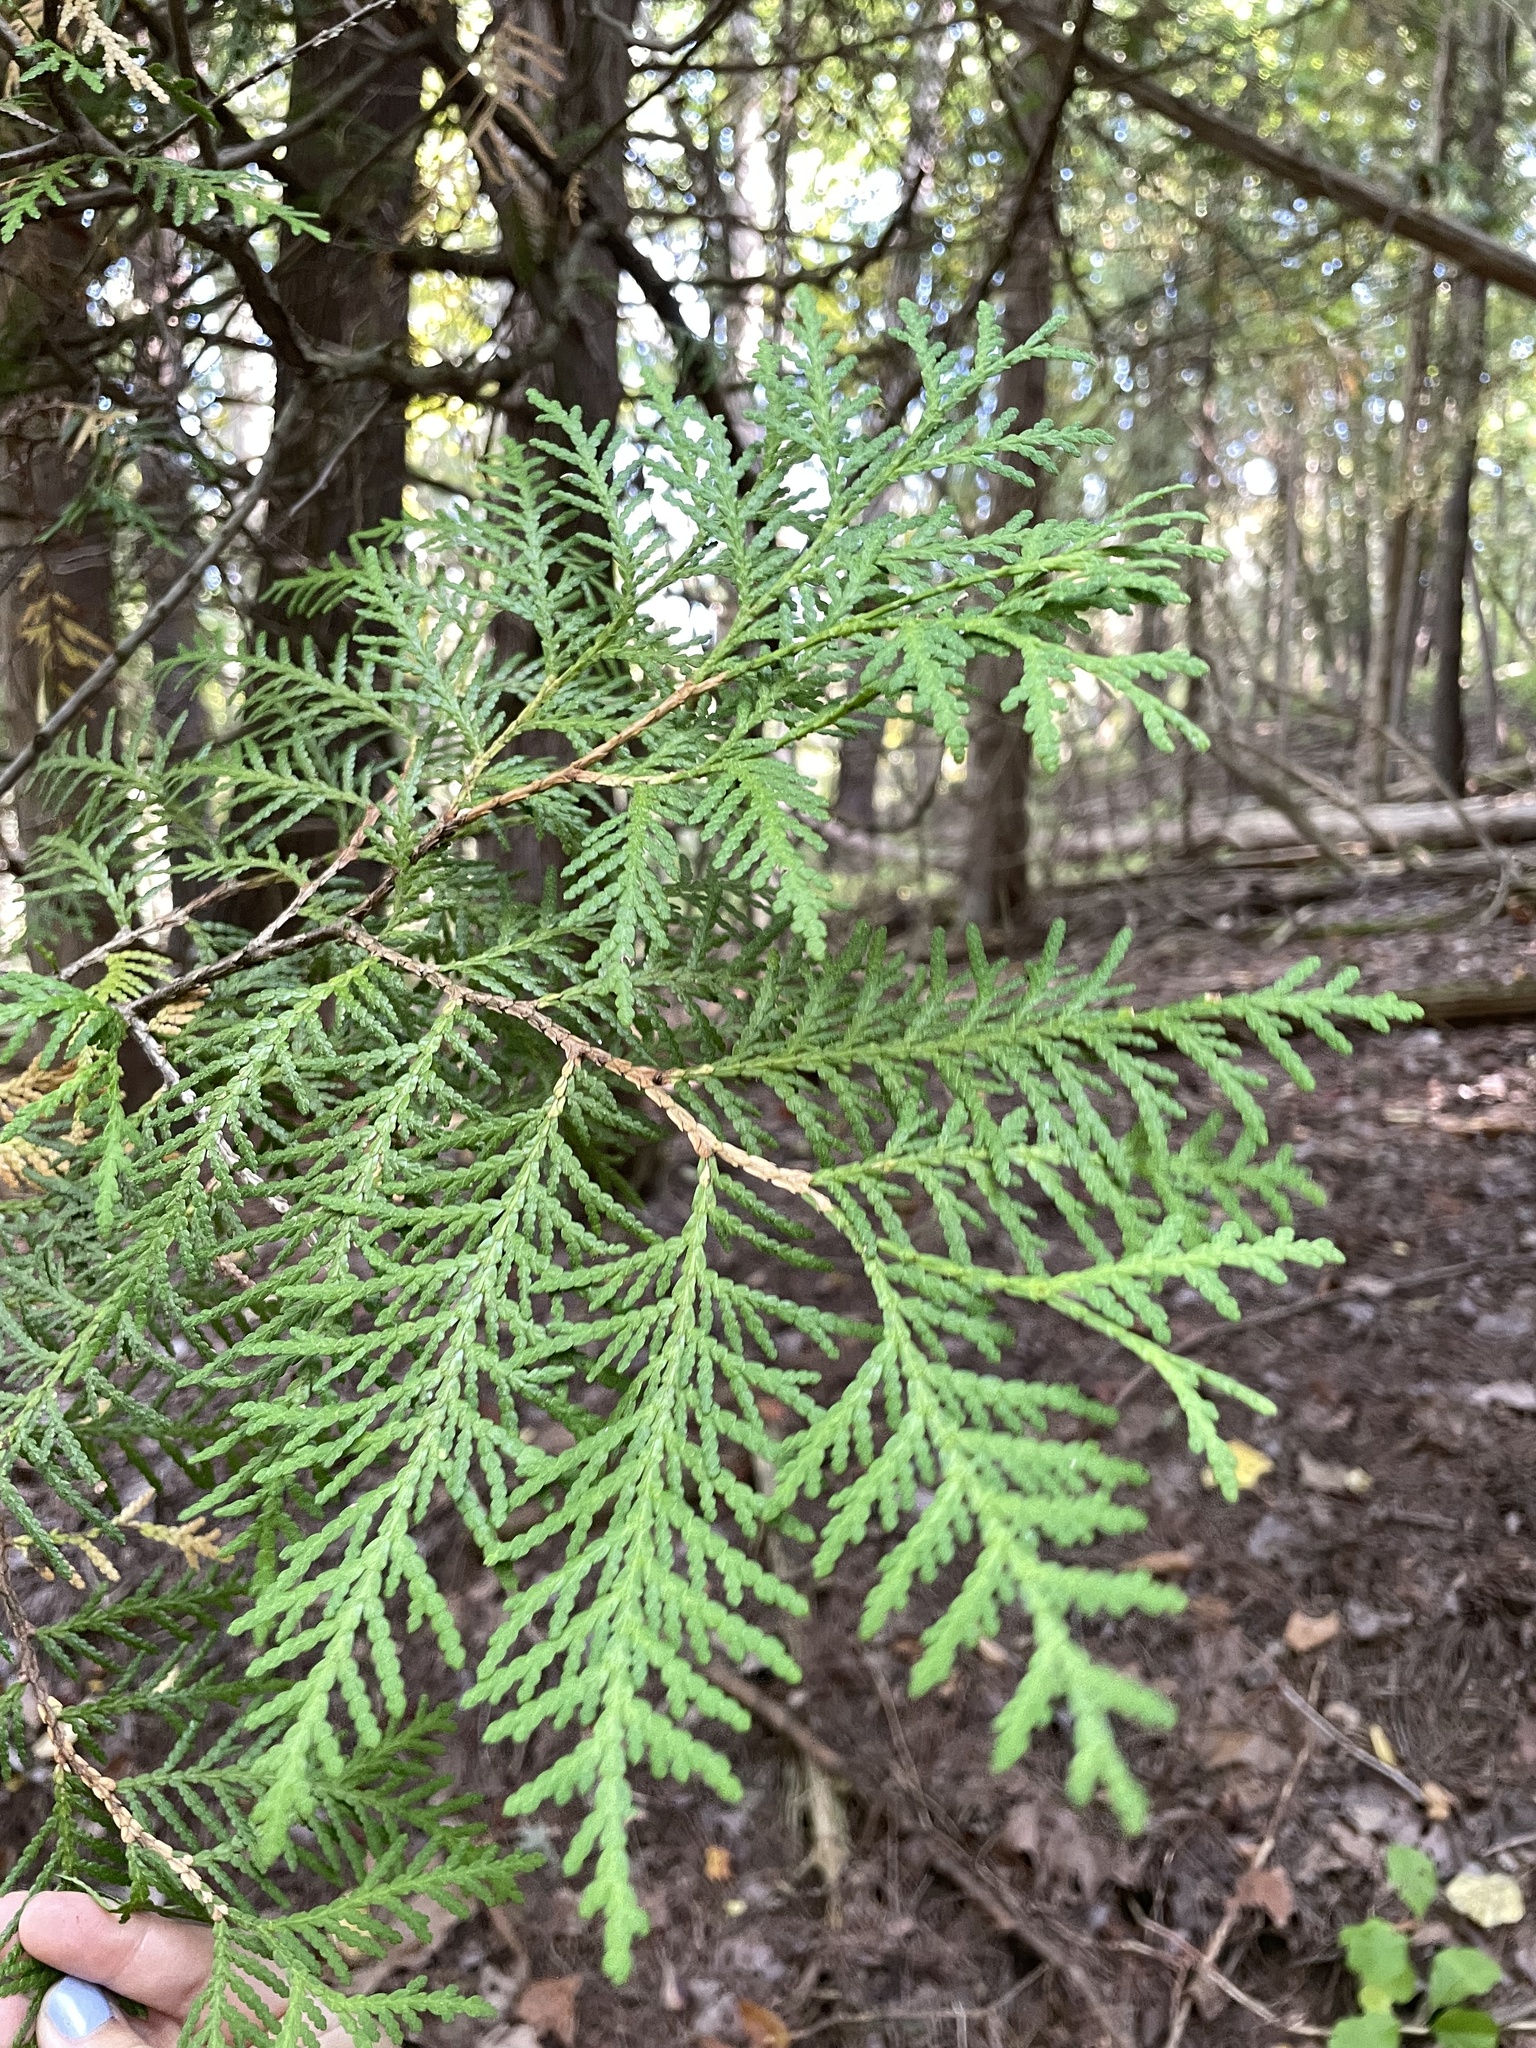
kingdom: Plantae
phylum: Tracheophyta
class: Pinopsida
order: Pinales
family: Cupressaceae
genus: Thuja
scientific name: Thuja occidentalis
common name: Northern white-cedar
